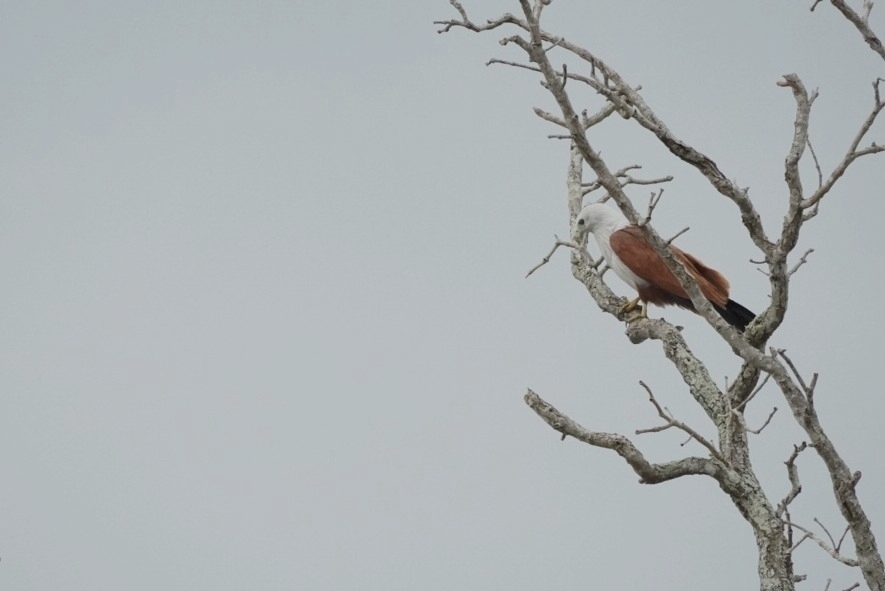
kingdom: Animalia
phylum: Chordata
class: Aves
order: Accipitriformes
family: Accipitridae
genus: Haliastur
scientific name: Haliastur indus
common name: Brahminy kite
